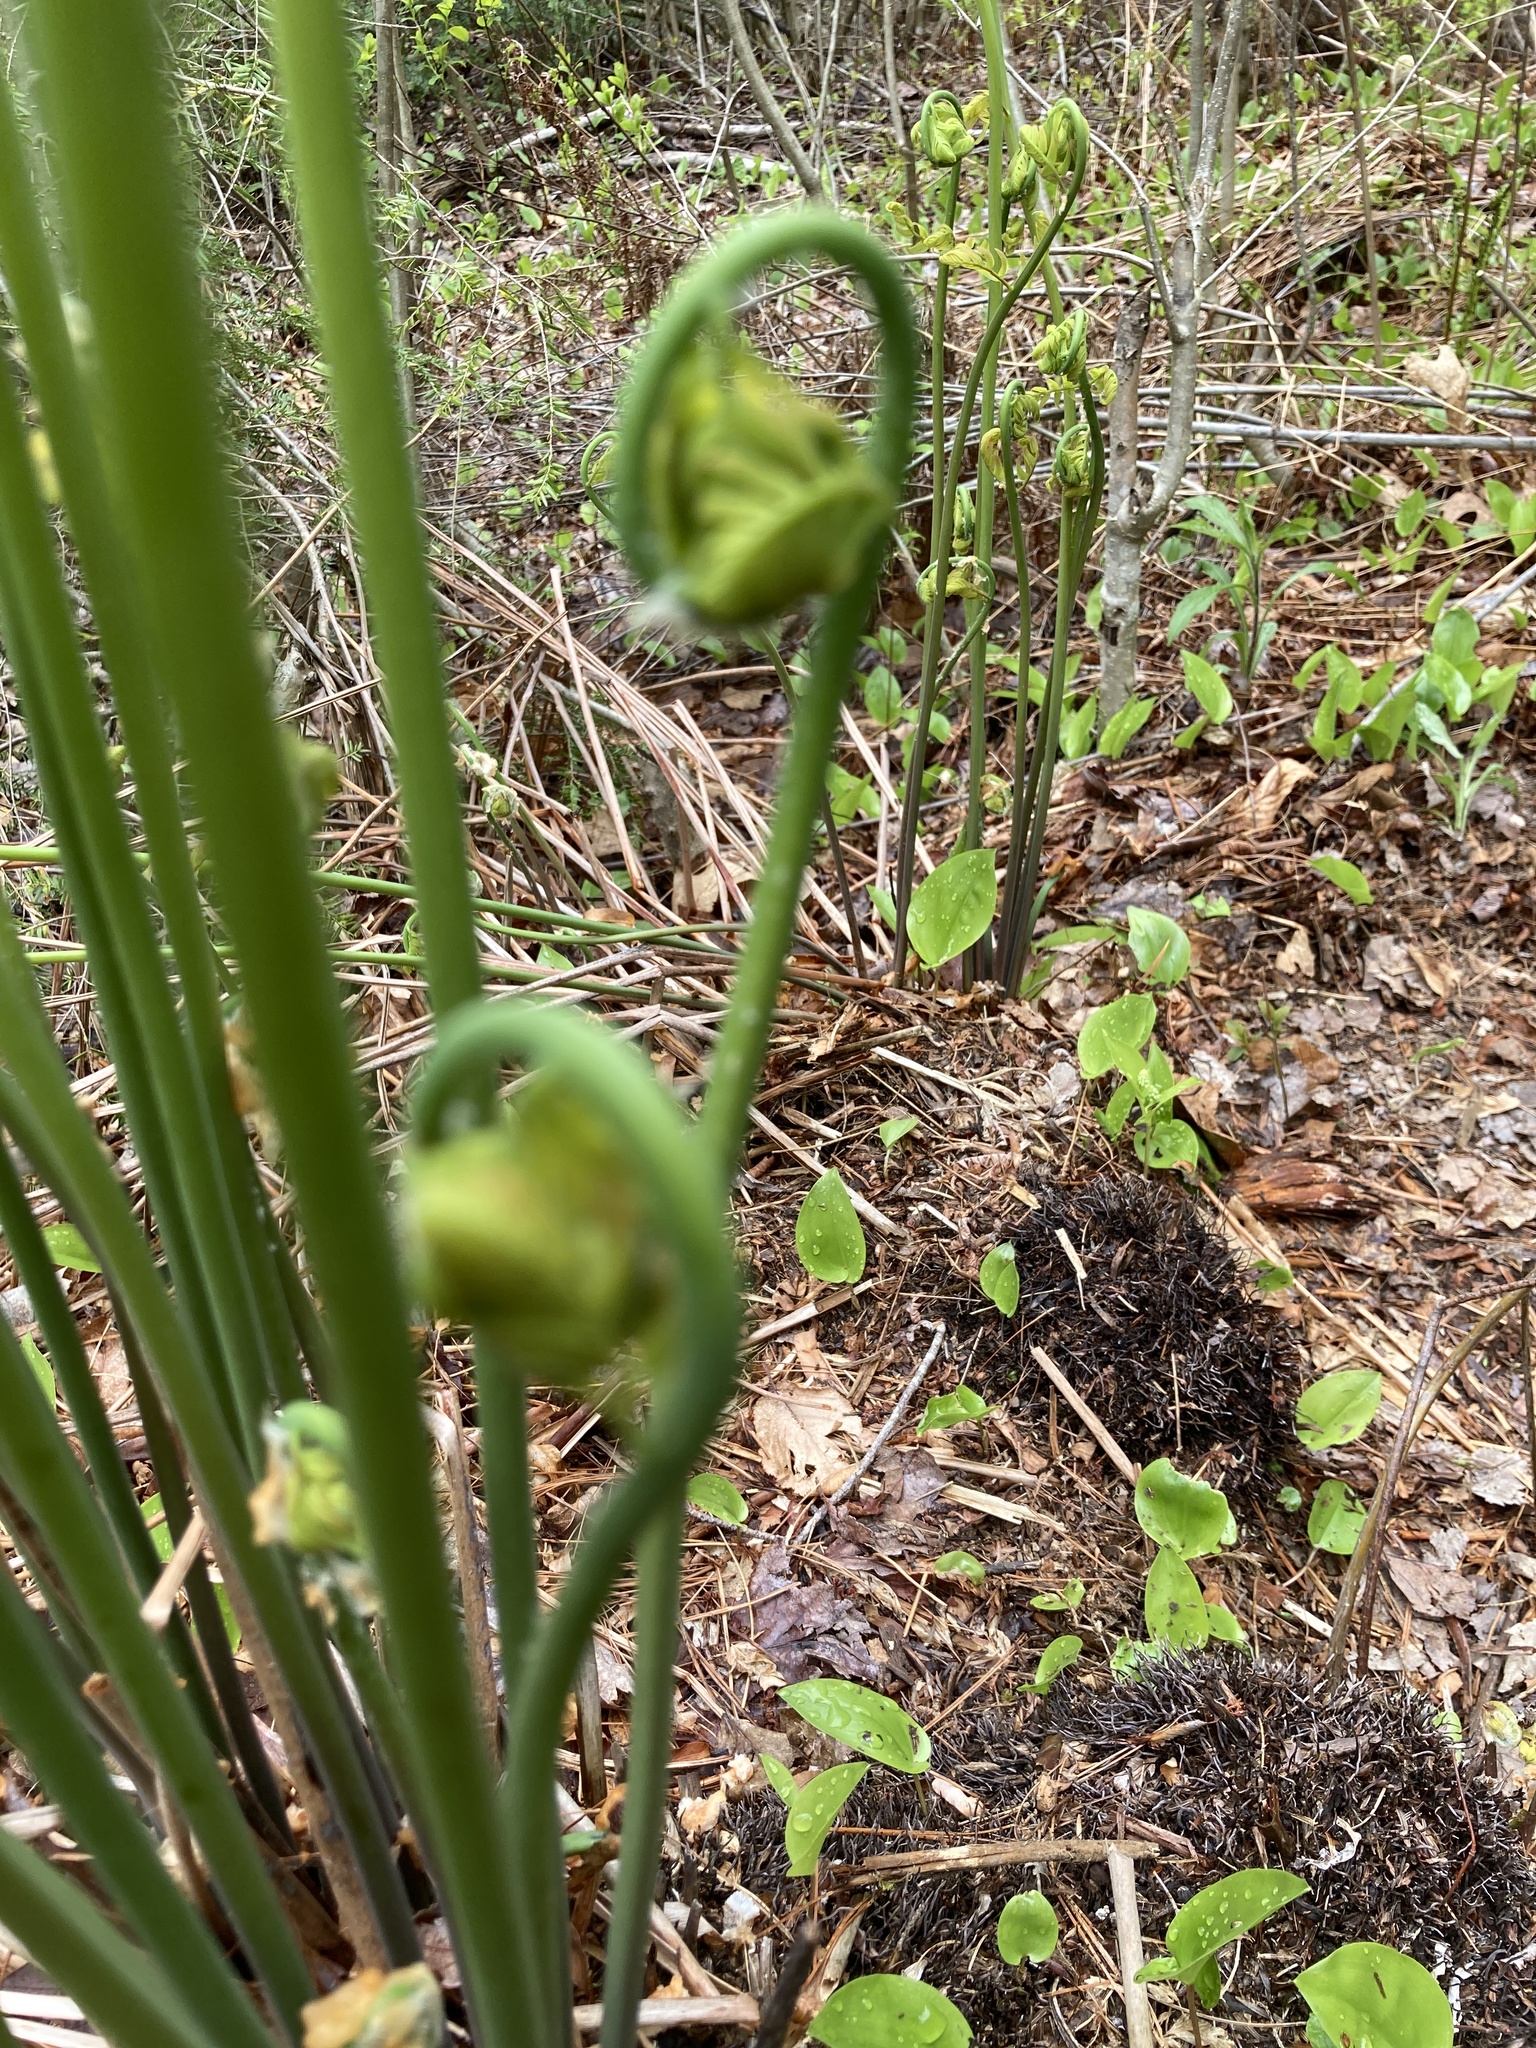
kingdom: Plantae
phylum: Tracheophyta
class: Polypodiopsida
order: Osmundales
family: Osmundaceae
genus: Osmunda
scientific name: Osmunda spectabilis
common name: American royal fern
